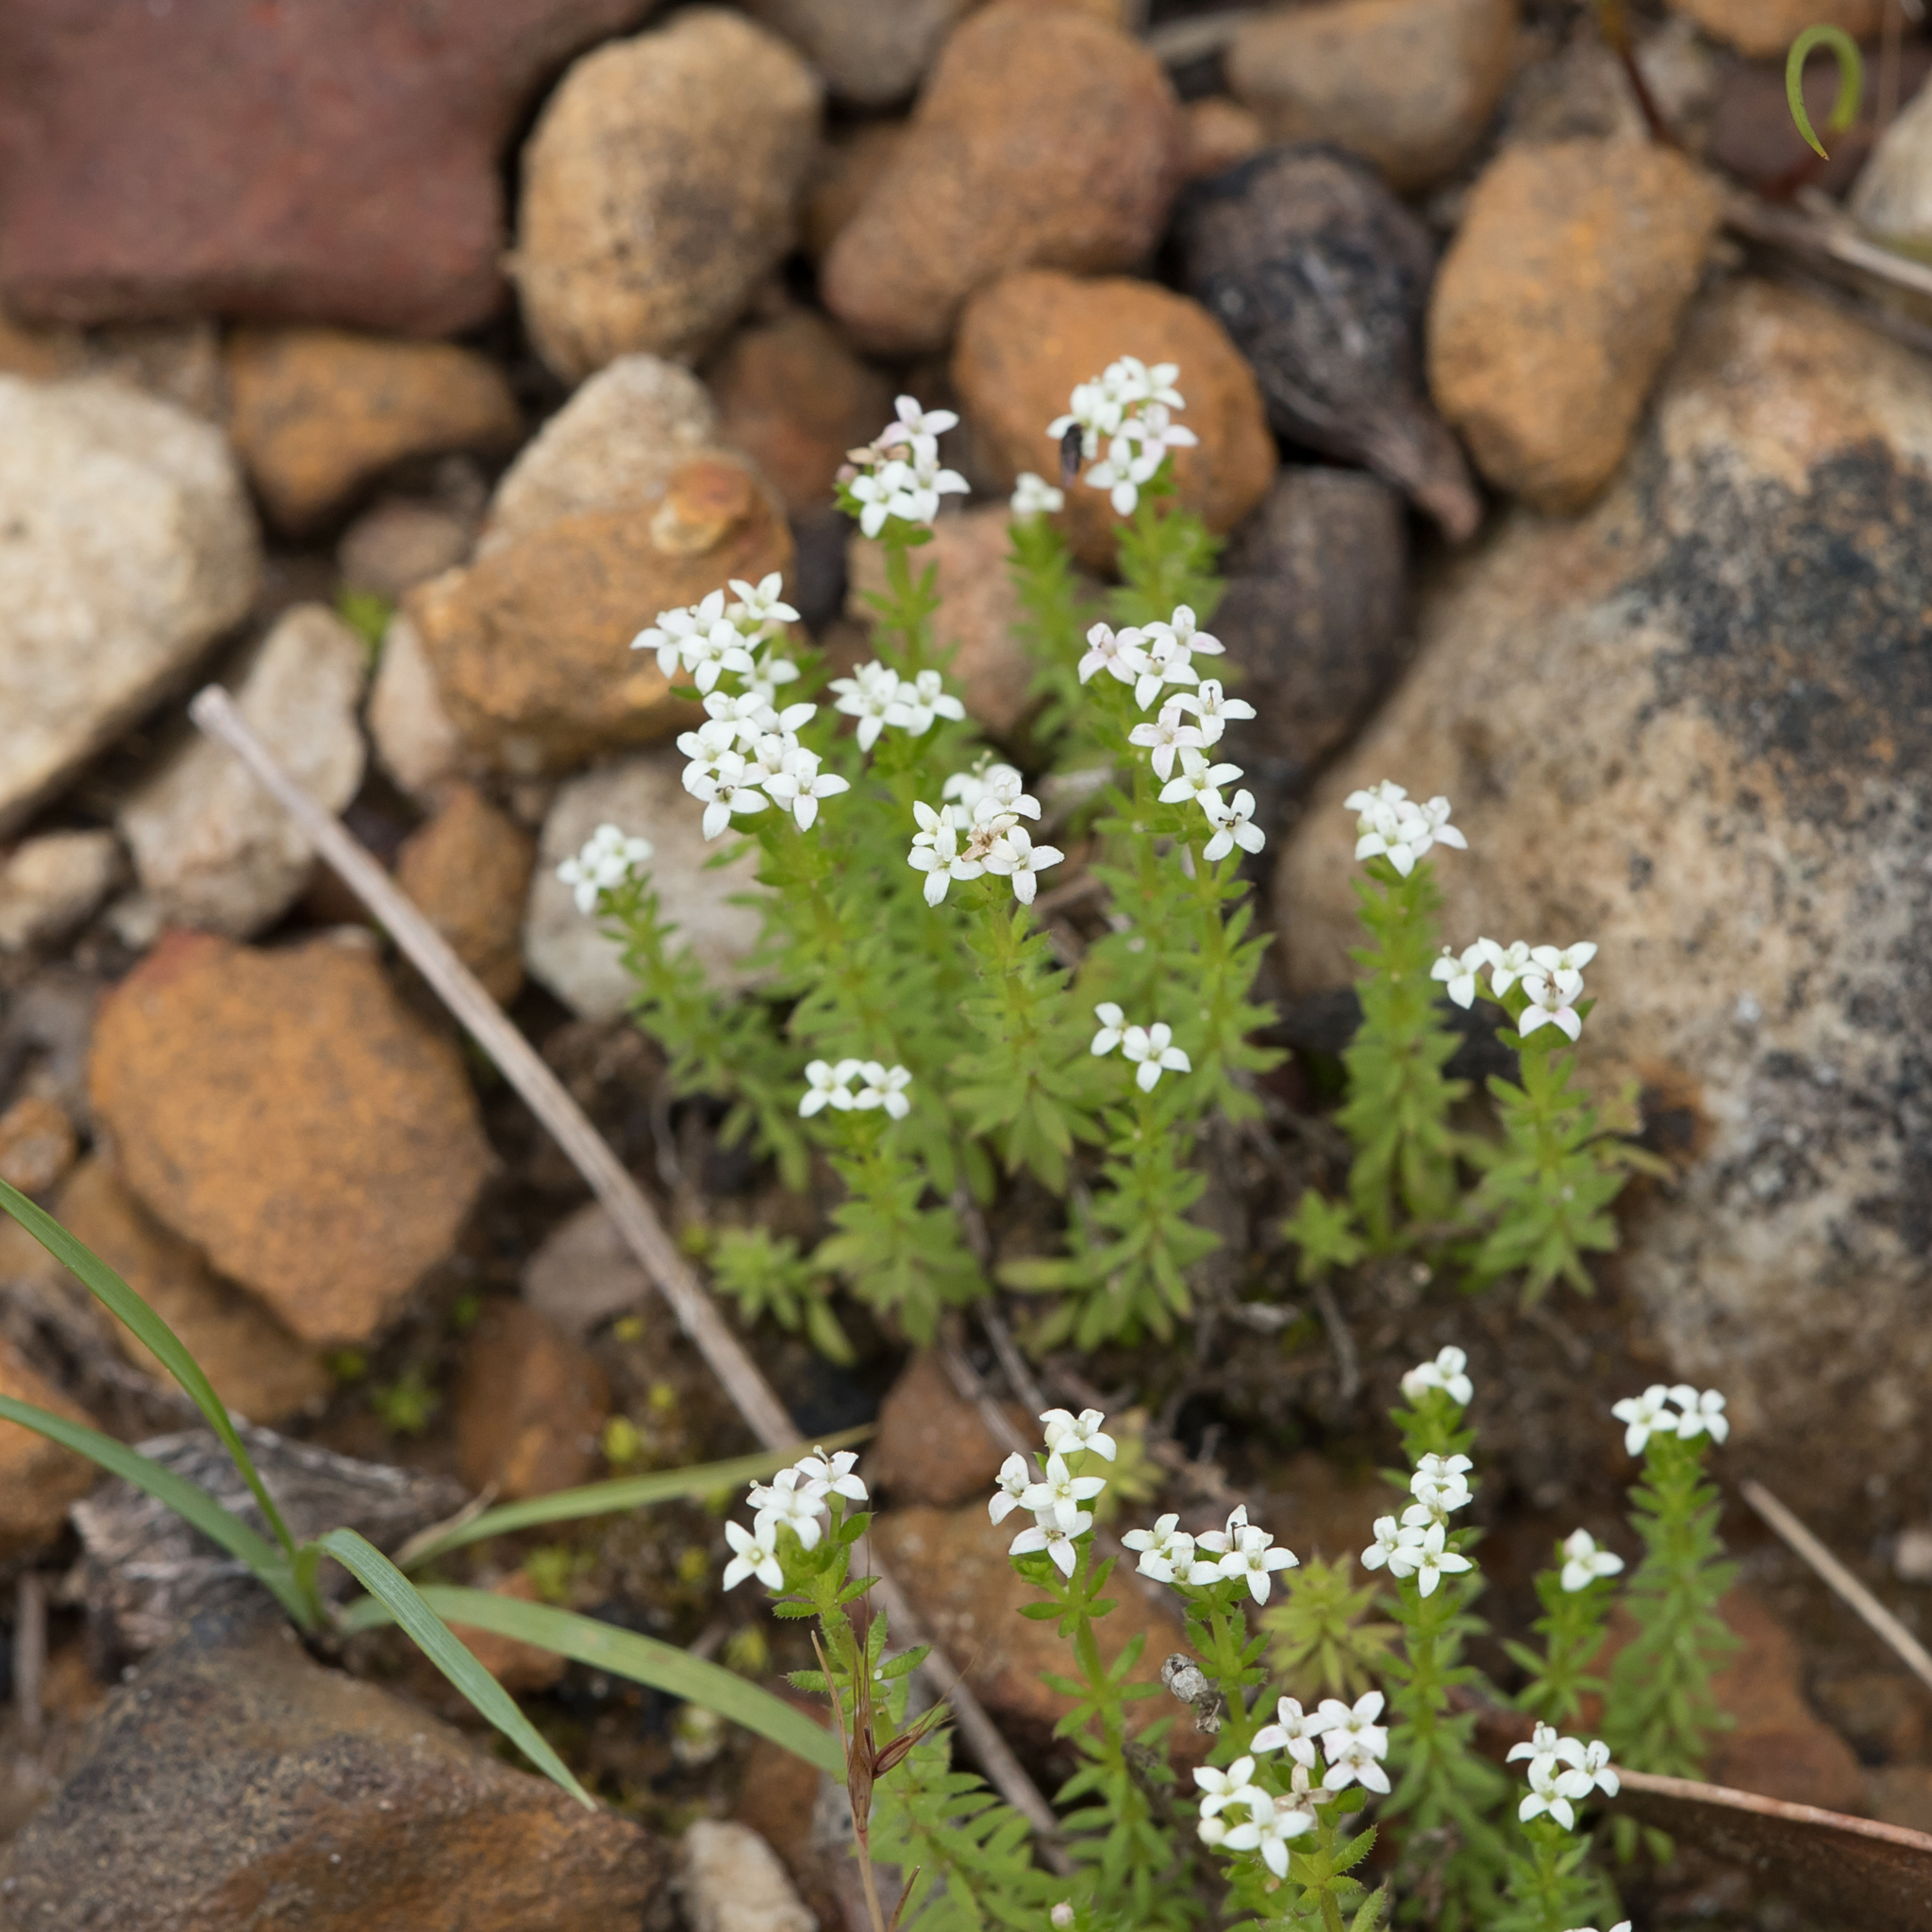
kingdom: Plantae
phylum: Tracheophyta
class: Magnoliopsida
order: Gentianales
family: Rubiaceae
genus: Asperula
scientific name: Asperula conferta
